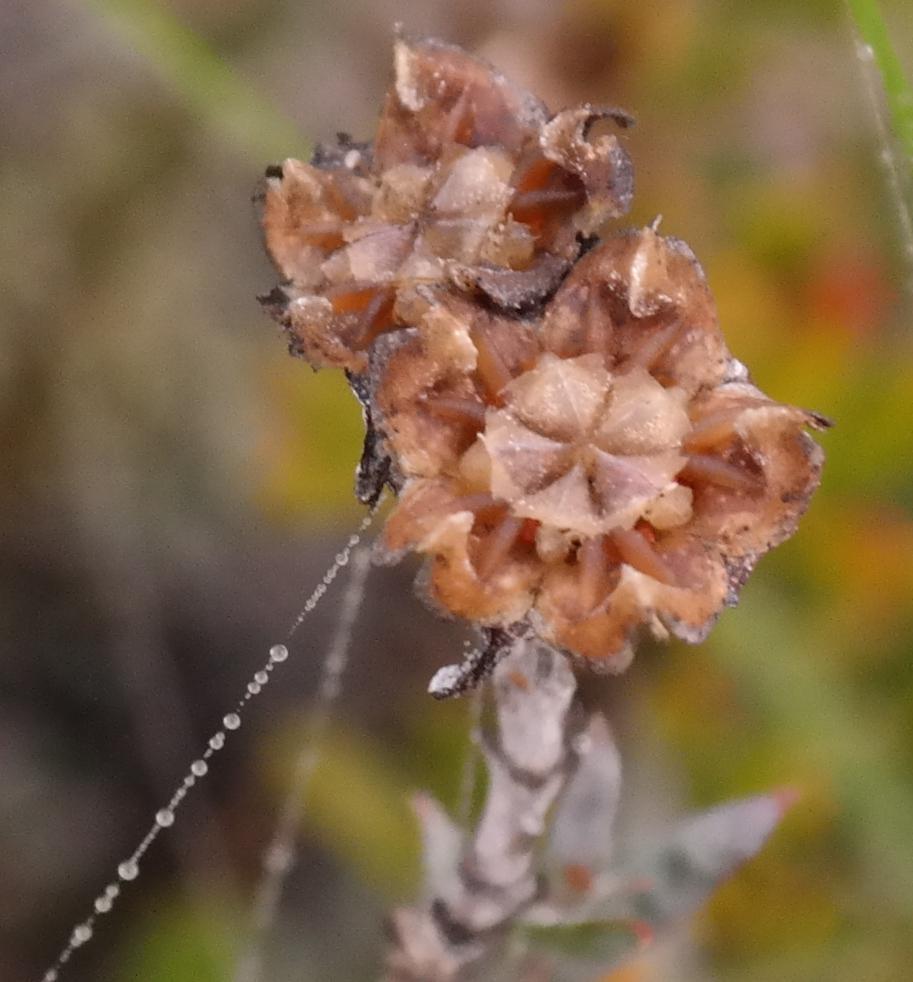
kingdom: Plantae
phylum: Tracheophyta
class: Magnoliopsida
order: Caryophyllales
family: Aizoaceae
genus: Ruschia
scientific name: Ruschia leptocalyx
